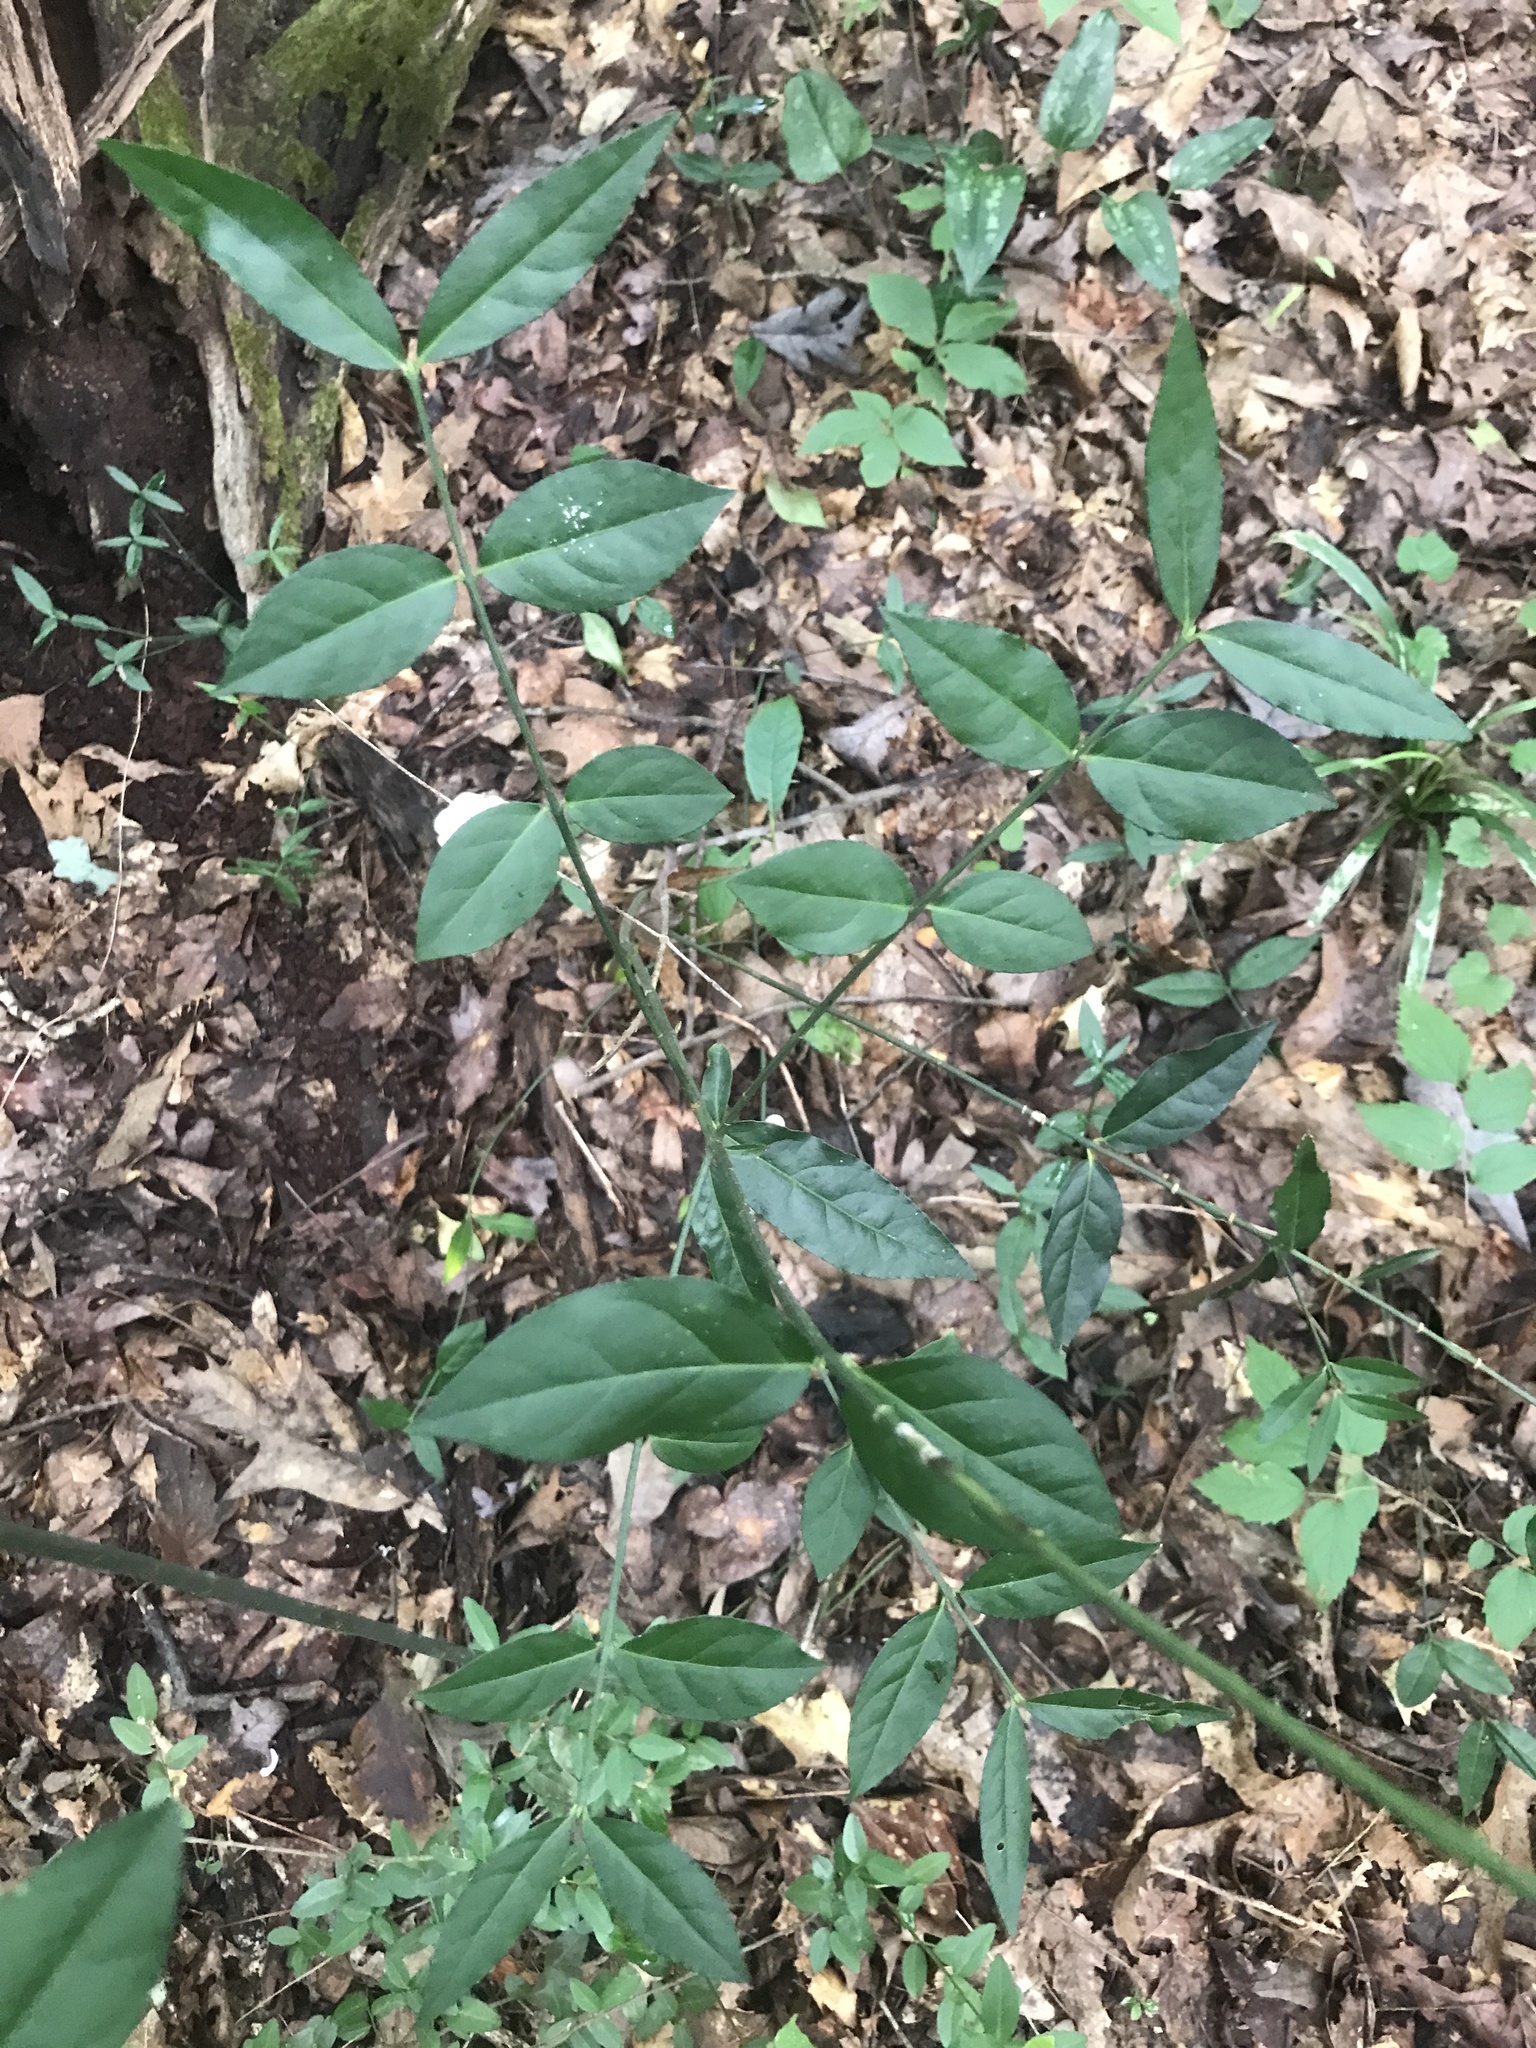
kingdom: Plantae
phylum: Tracheophyta
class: Magnoliopsida
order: Celastrales
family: Celastraceae
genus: Euonymus
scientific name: Euonymus americanus
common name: Bursting-heart
